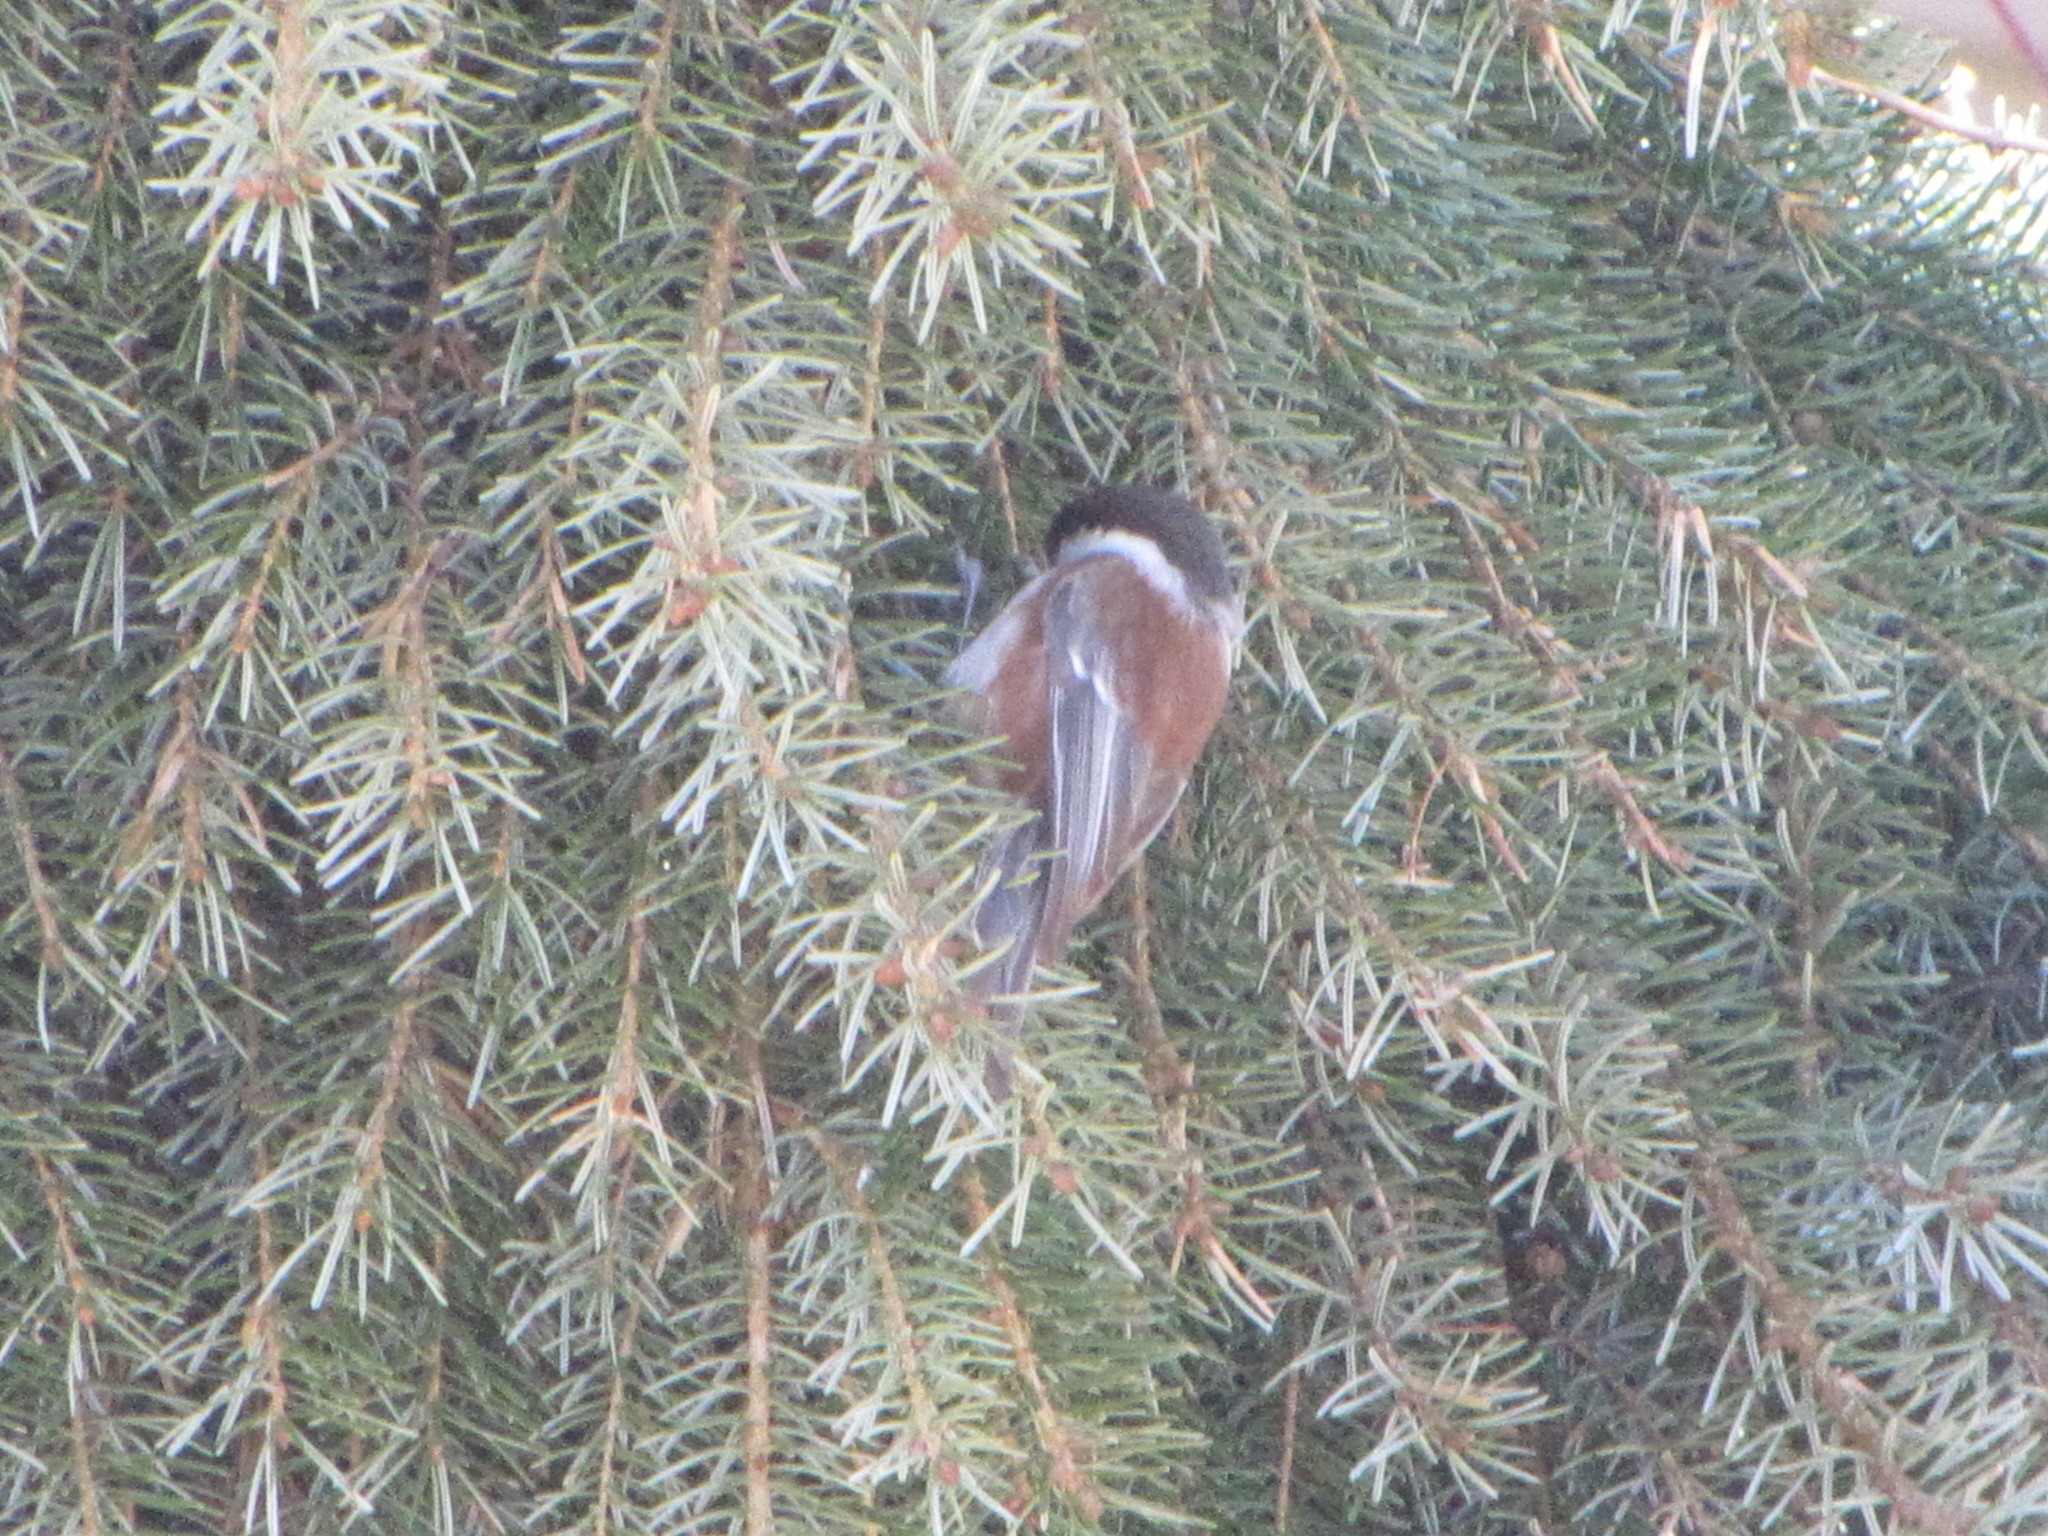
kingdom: Animalia
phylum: Chordata
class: Aves
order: Passeriformes
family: Paridae
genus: Poecile
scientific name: Poecile rufescens
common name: Chestnut-backed chickadee
